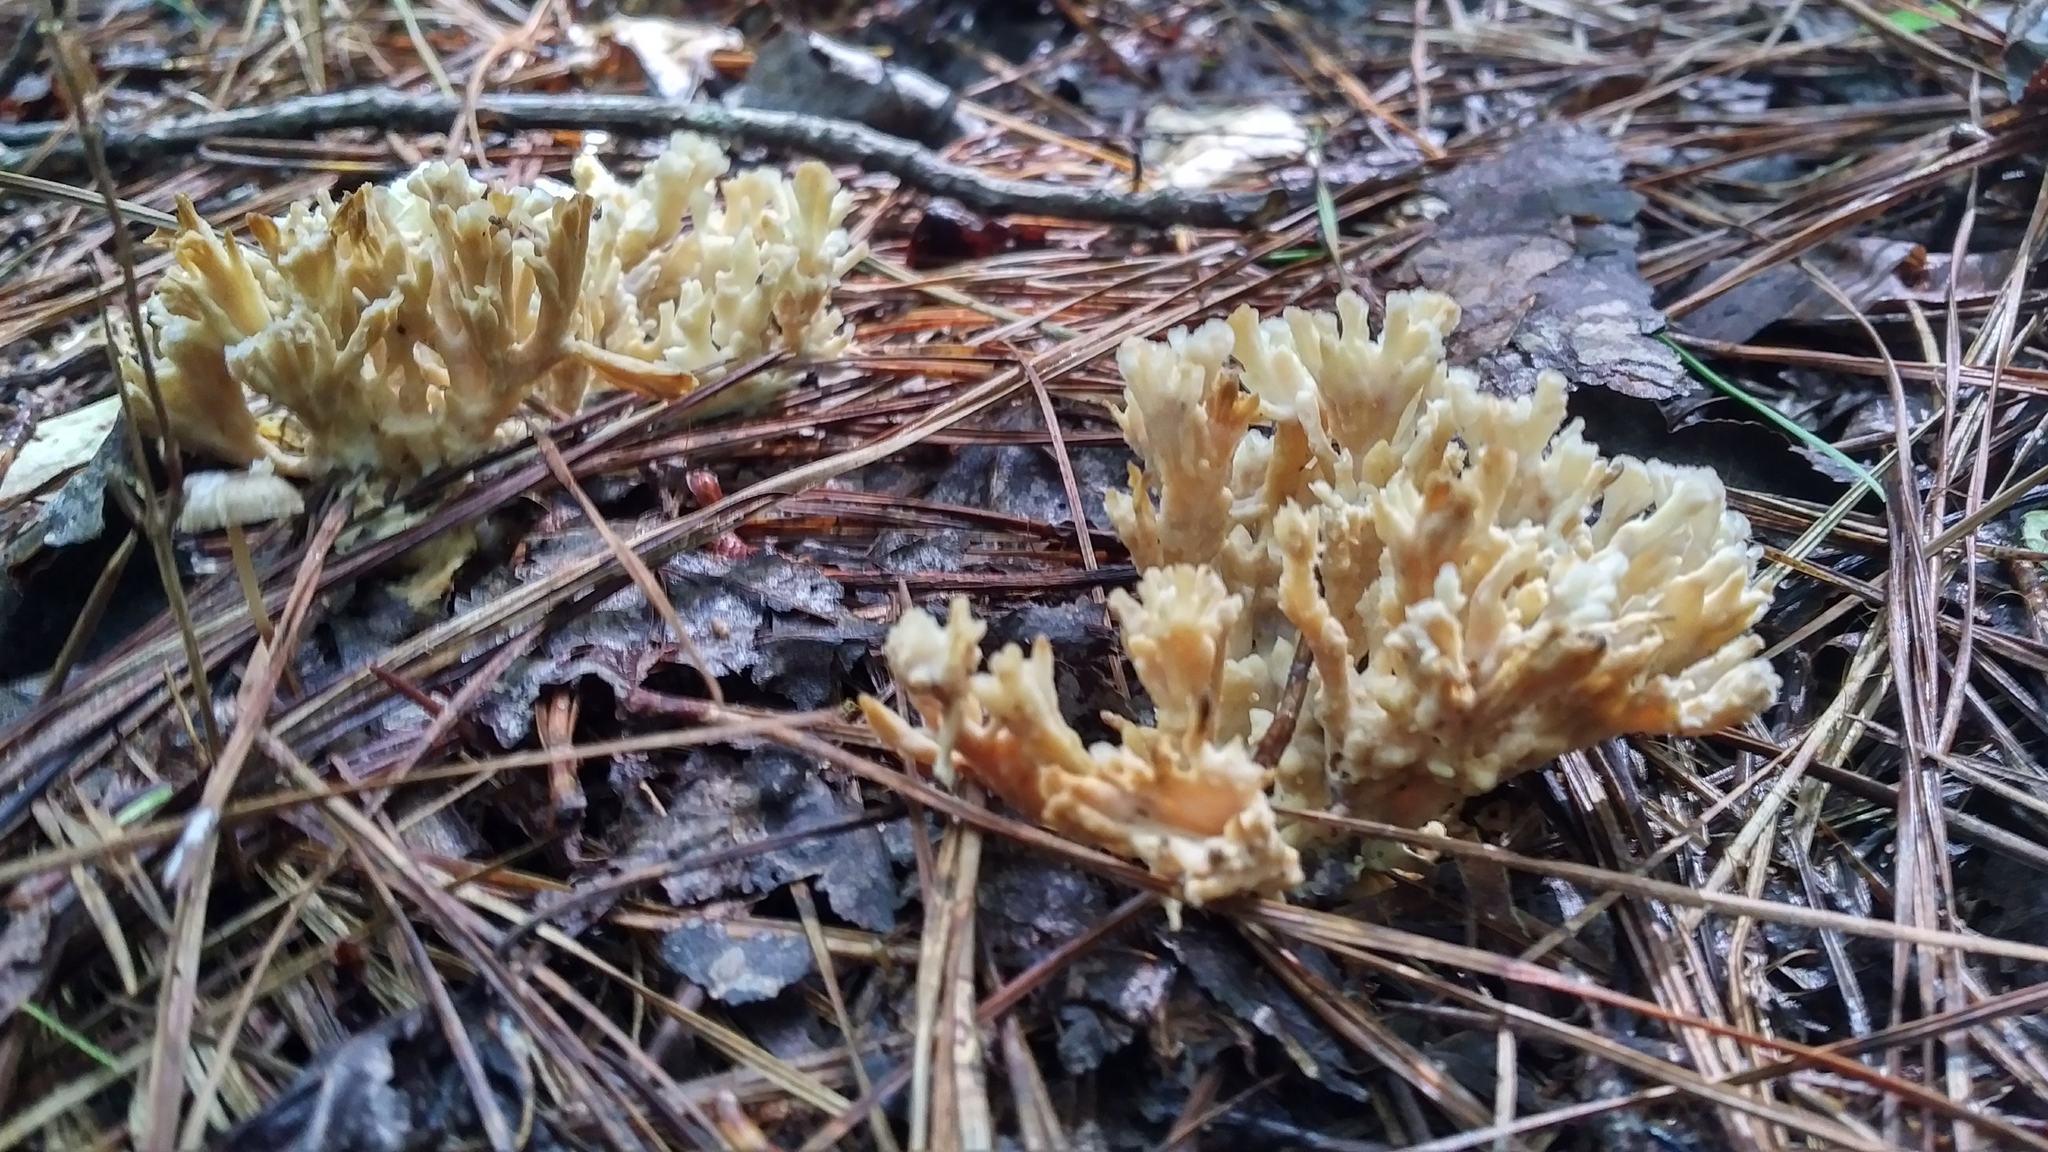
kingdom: Fungi
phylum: Basidiomycota
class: Agaricomycetes
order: Sebacinales
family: Sebacinaceae
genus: Sebacina
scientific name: Sebacina schweinitzii
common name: Jellied false coral fungus
